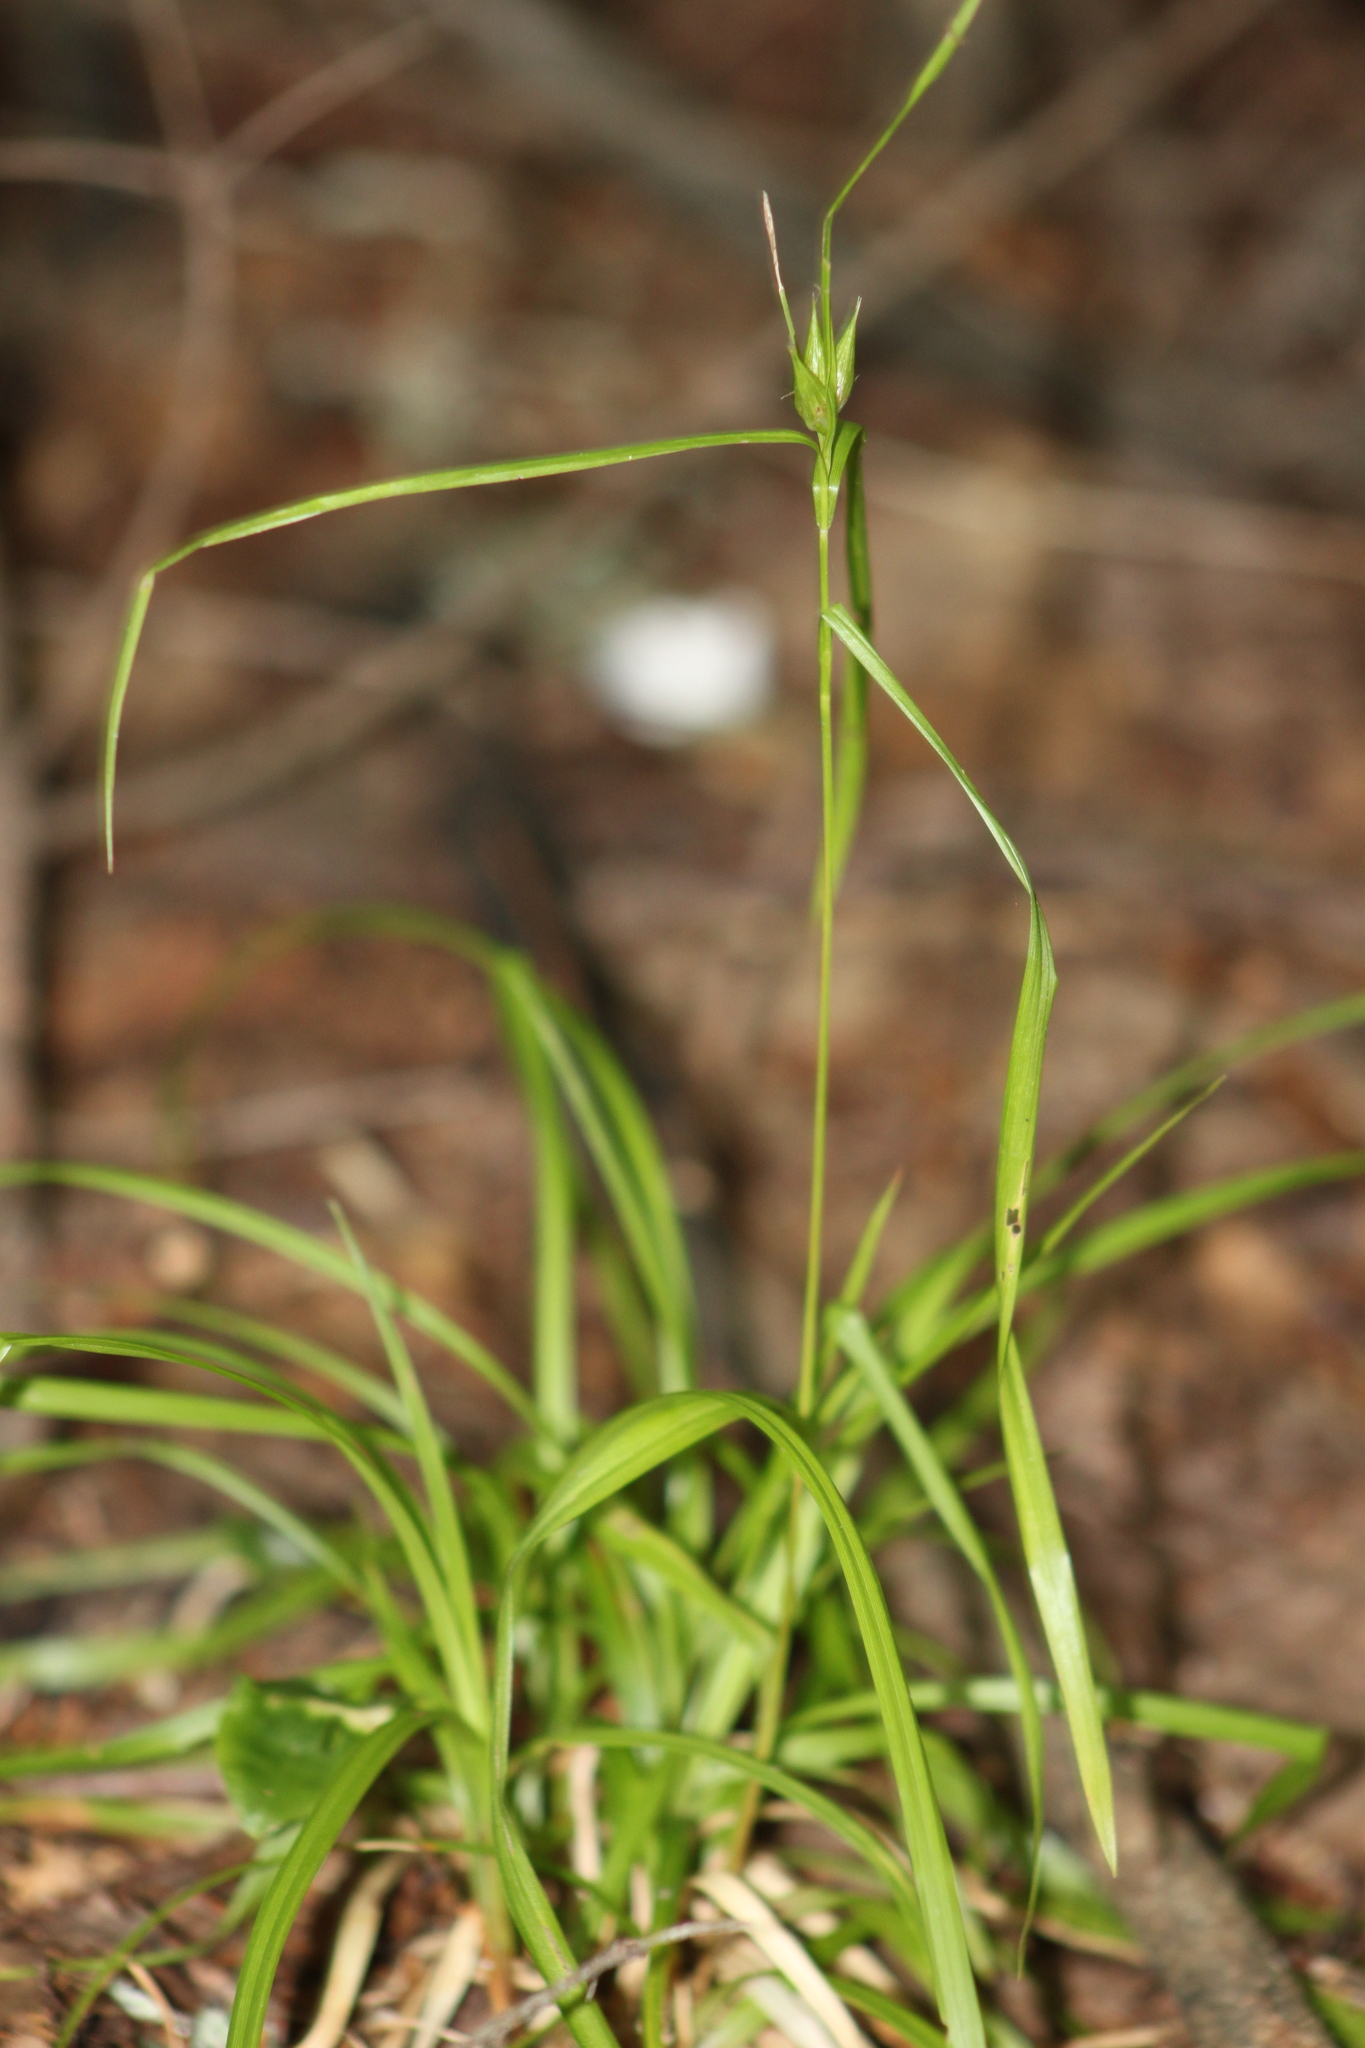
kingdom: Plantae
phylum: Tracheophyta
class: Liliopsida
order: Poales
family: Cyperaceae
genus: Carex
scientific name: Carex intumescens
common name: Greater bladder sedge
